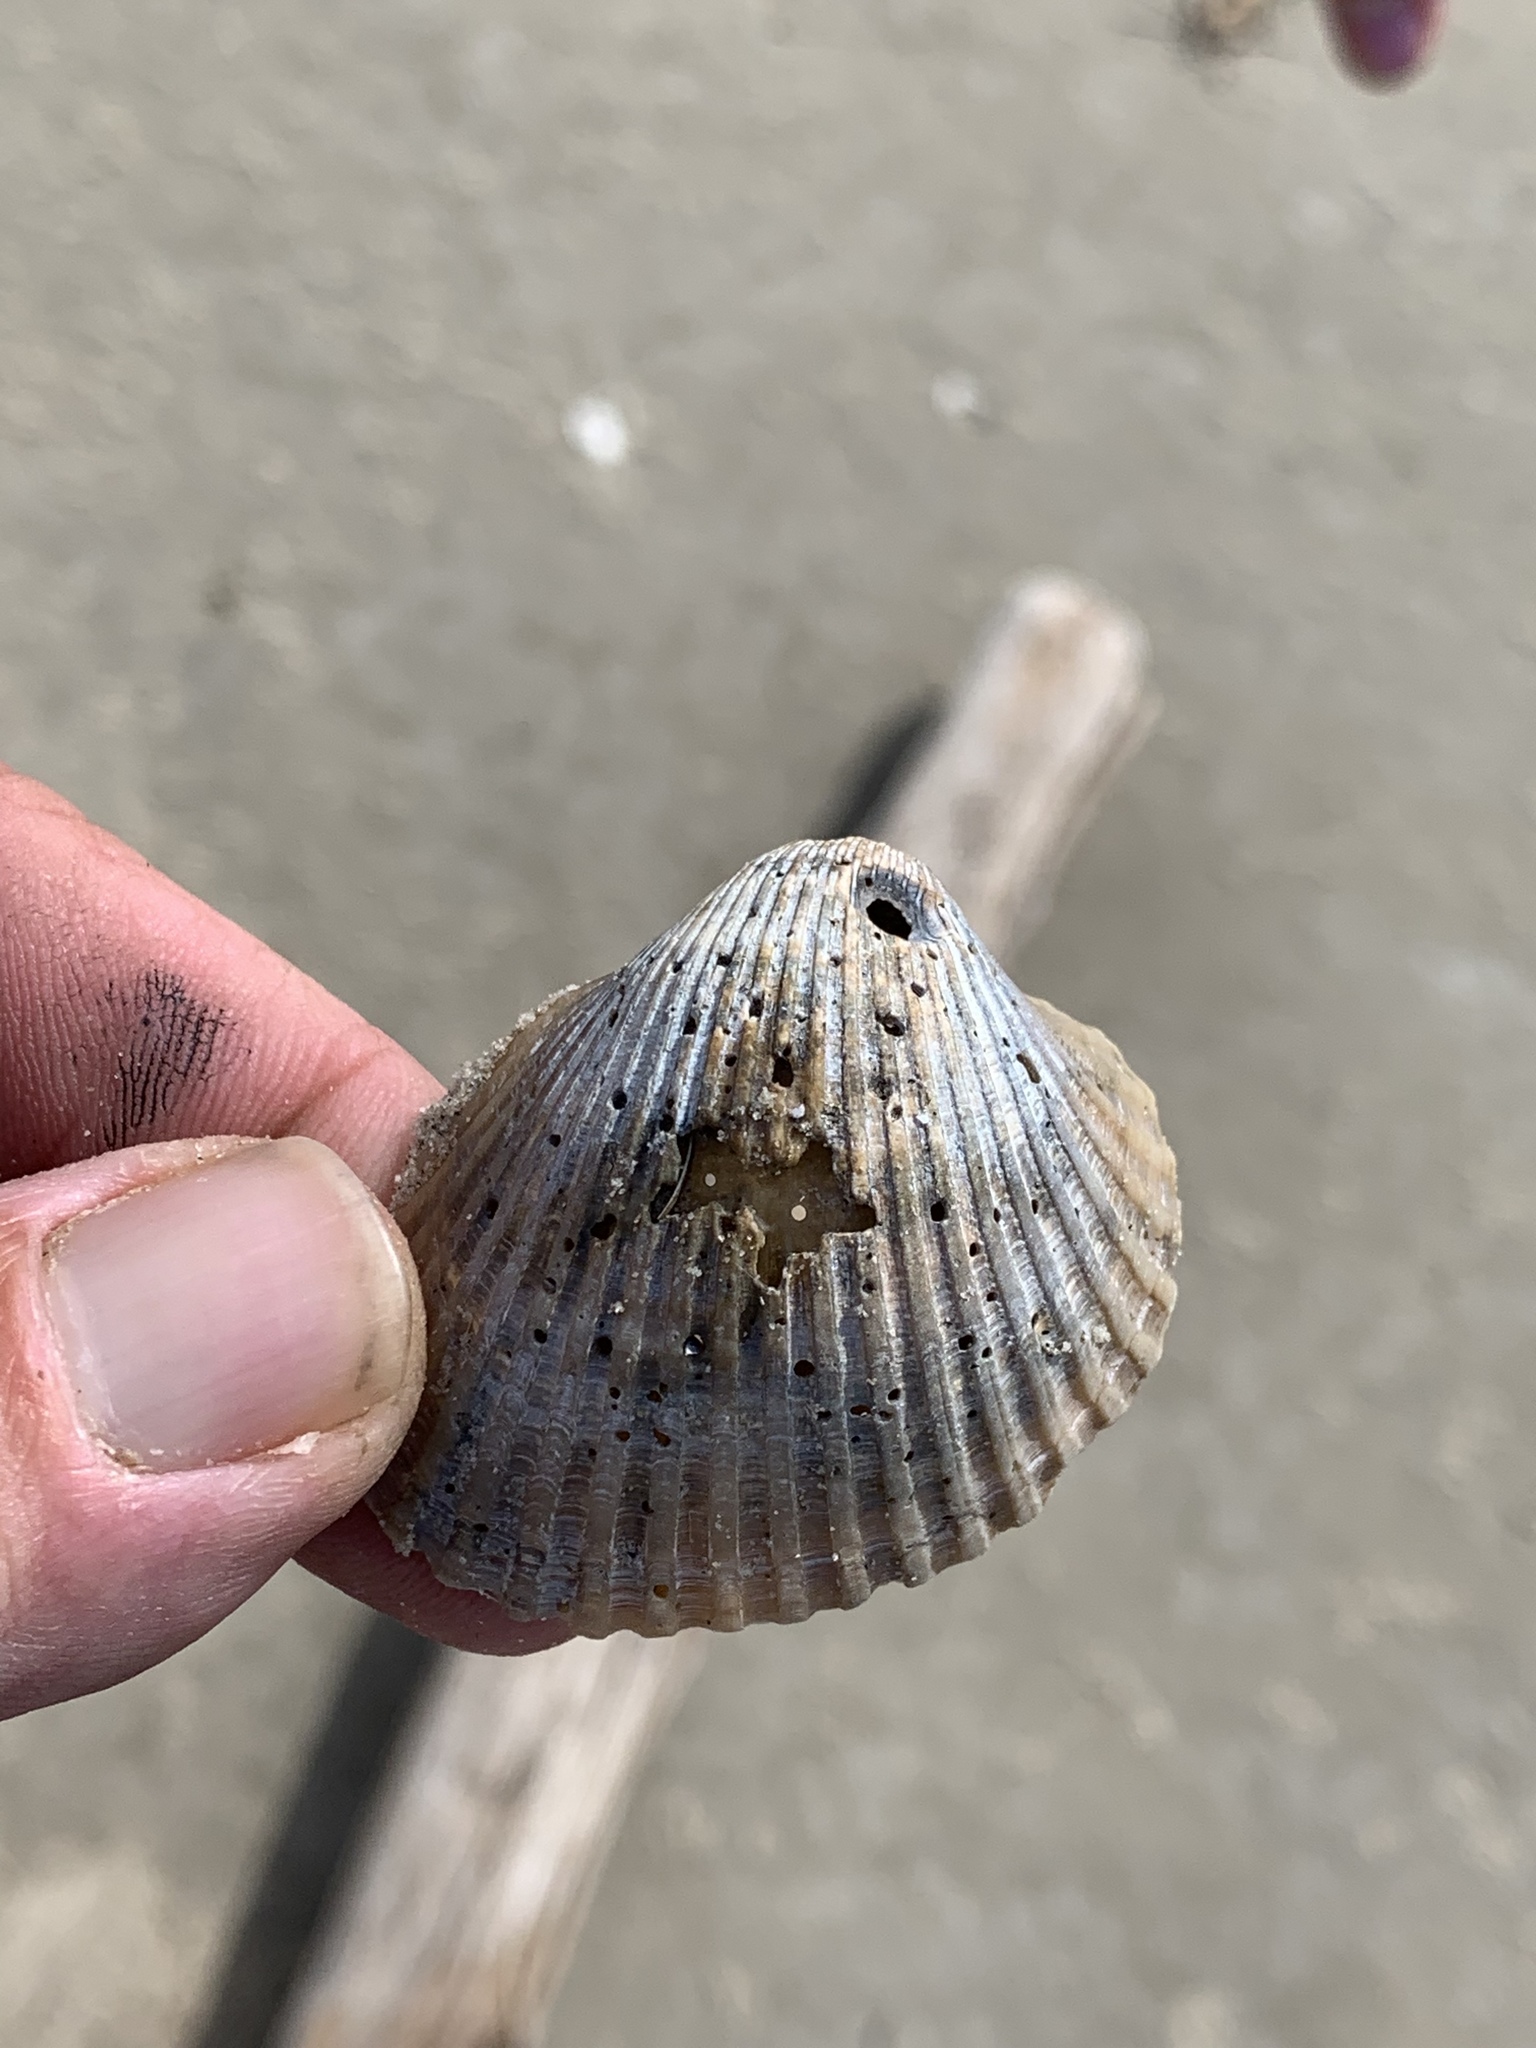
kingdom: Animalia
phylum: Mollusca
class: Bivalvia
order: Arcida
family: Arcidae
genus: Lunarca
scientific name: Lunarca ovalis
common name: Blood ark
